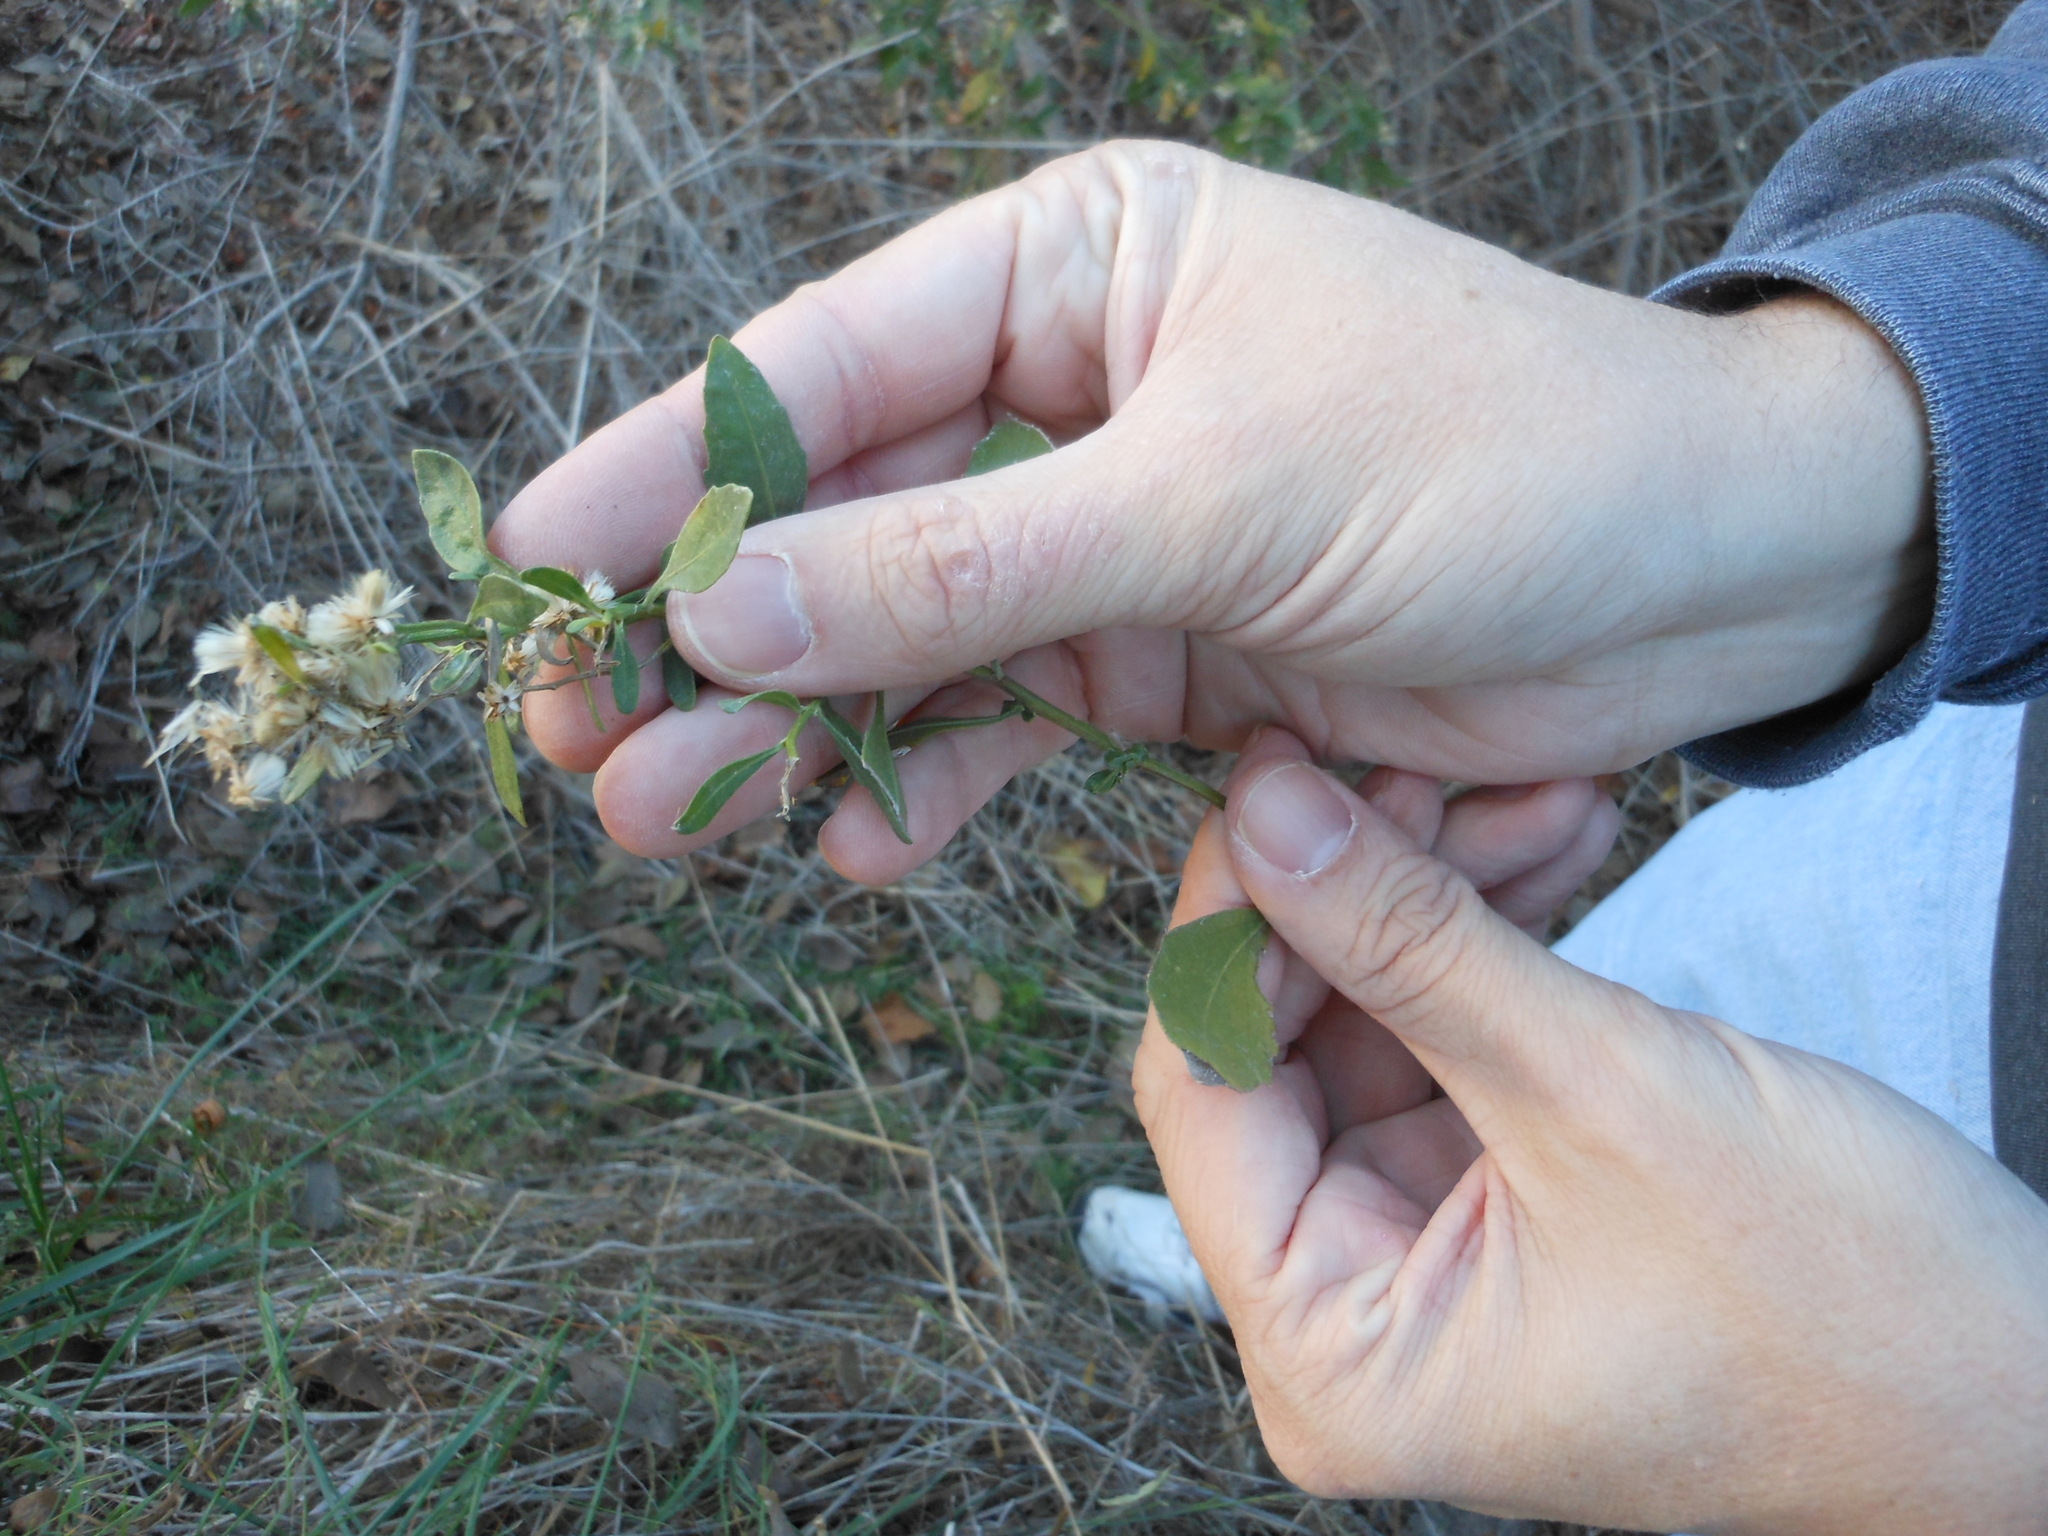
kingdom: Plantae
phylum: Tracheophyta
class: Magnoliopsida
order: Asterales
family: Asteraceae
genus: Baccharis
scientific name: Baccharis halimifolia
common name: Eastern baccharis
